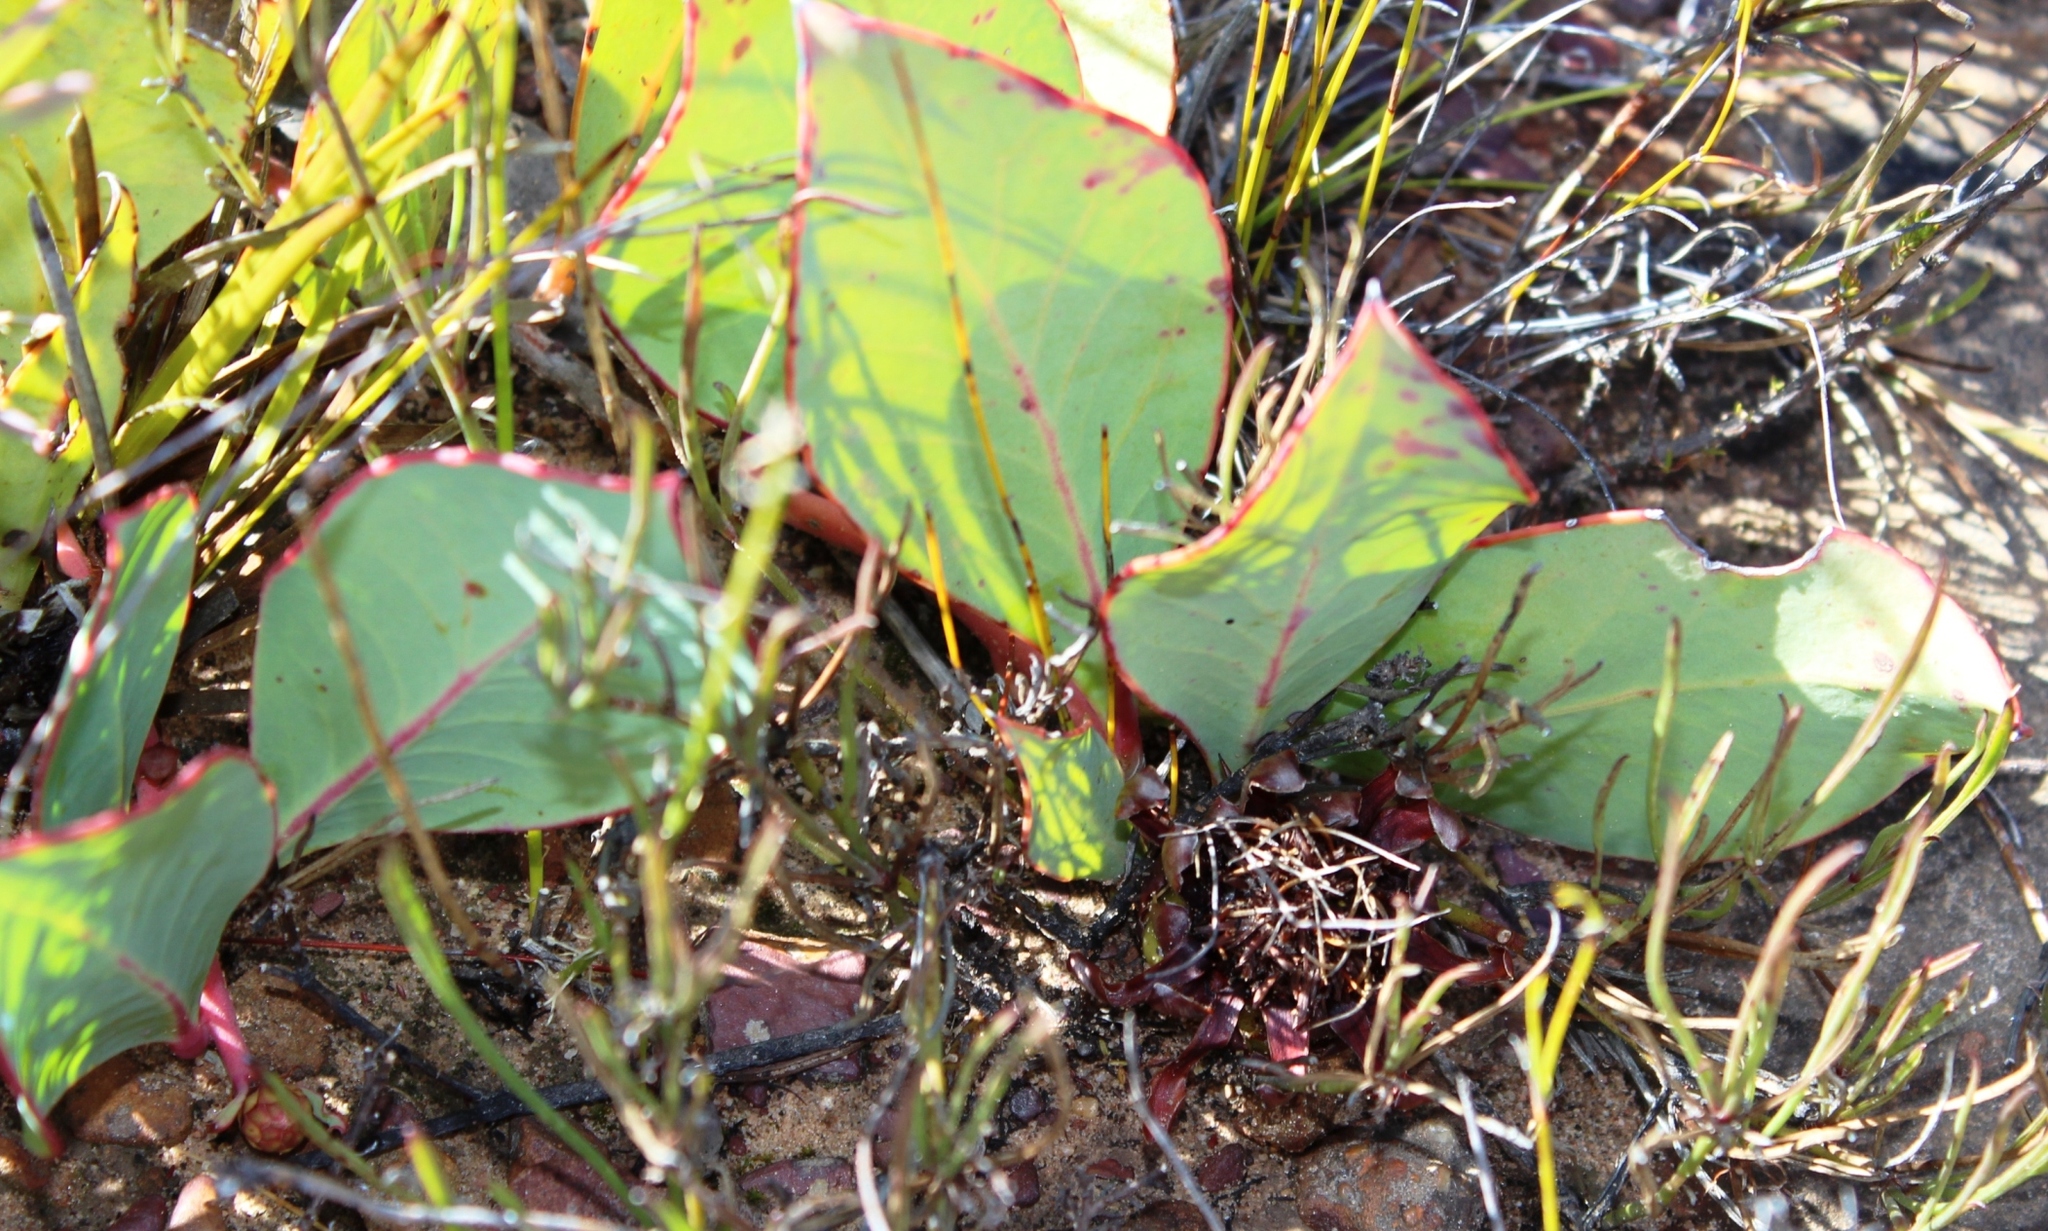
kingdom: Plantae
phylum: Tracheophyta
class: Magnoliopsida
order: Proteales
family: Proteaceae
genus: Protea
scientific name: Protea acaulos
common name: Common ground sugarbush
